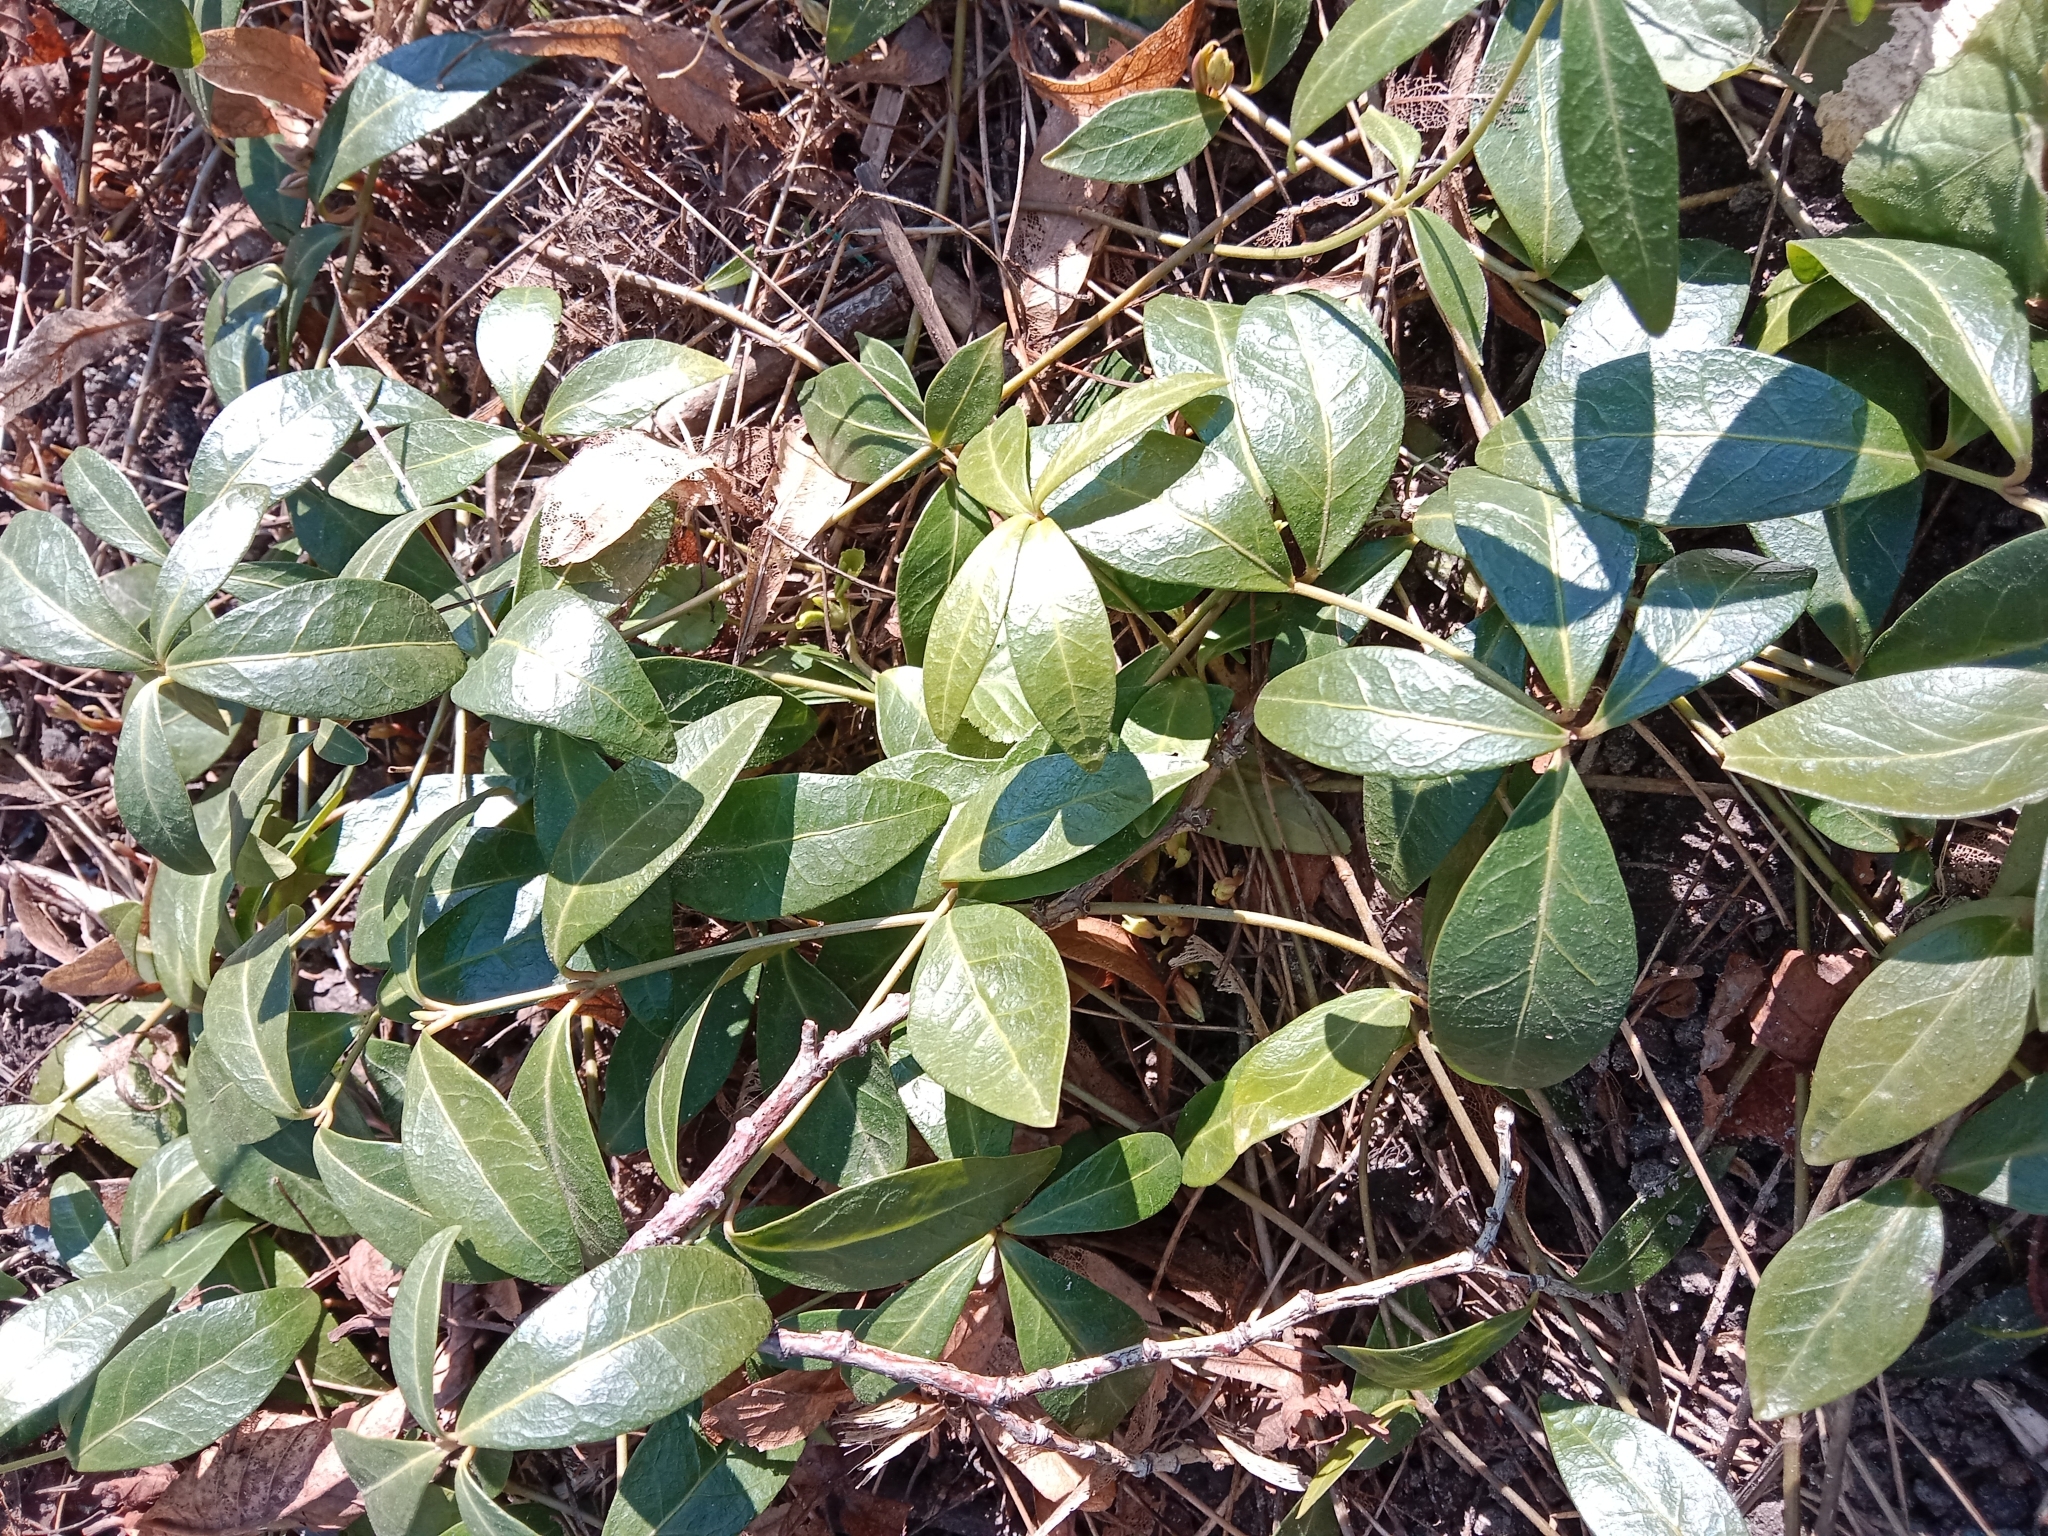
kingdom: Plantae
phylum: Tracheophyta
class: Magnoliopsida
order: Gentianales
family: Apocynaceae
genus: Vinca
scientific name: Vinca minor
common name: Lesser periwinkle
